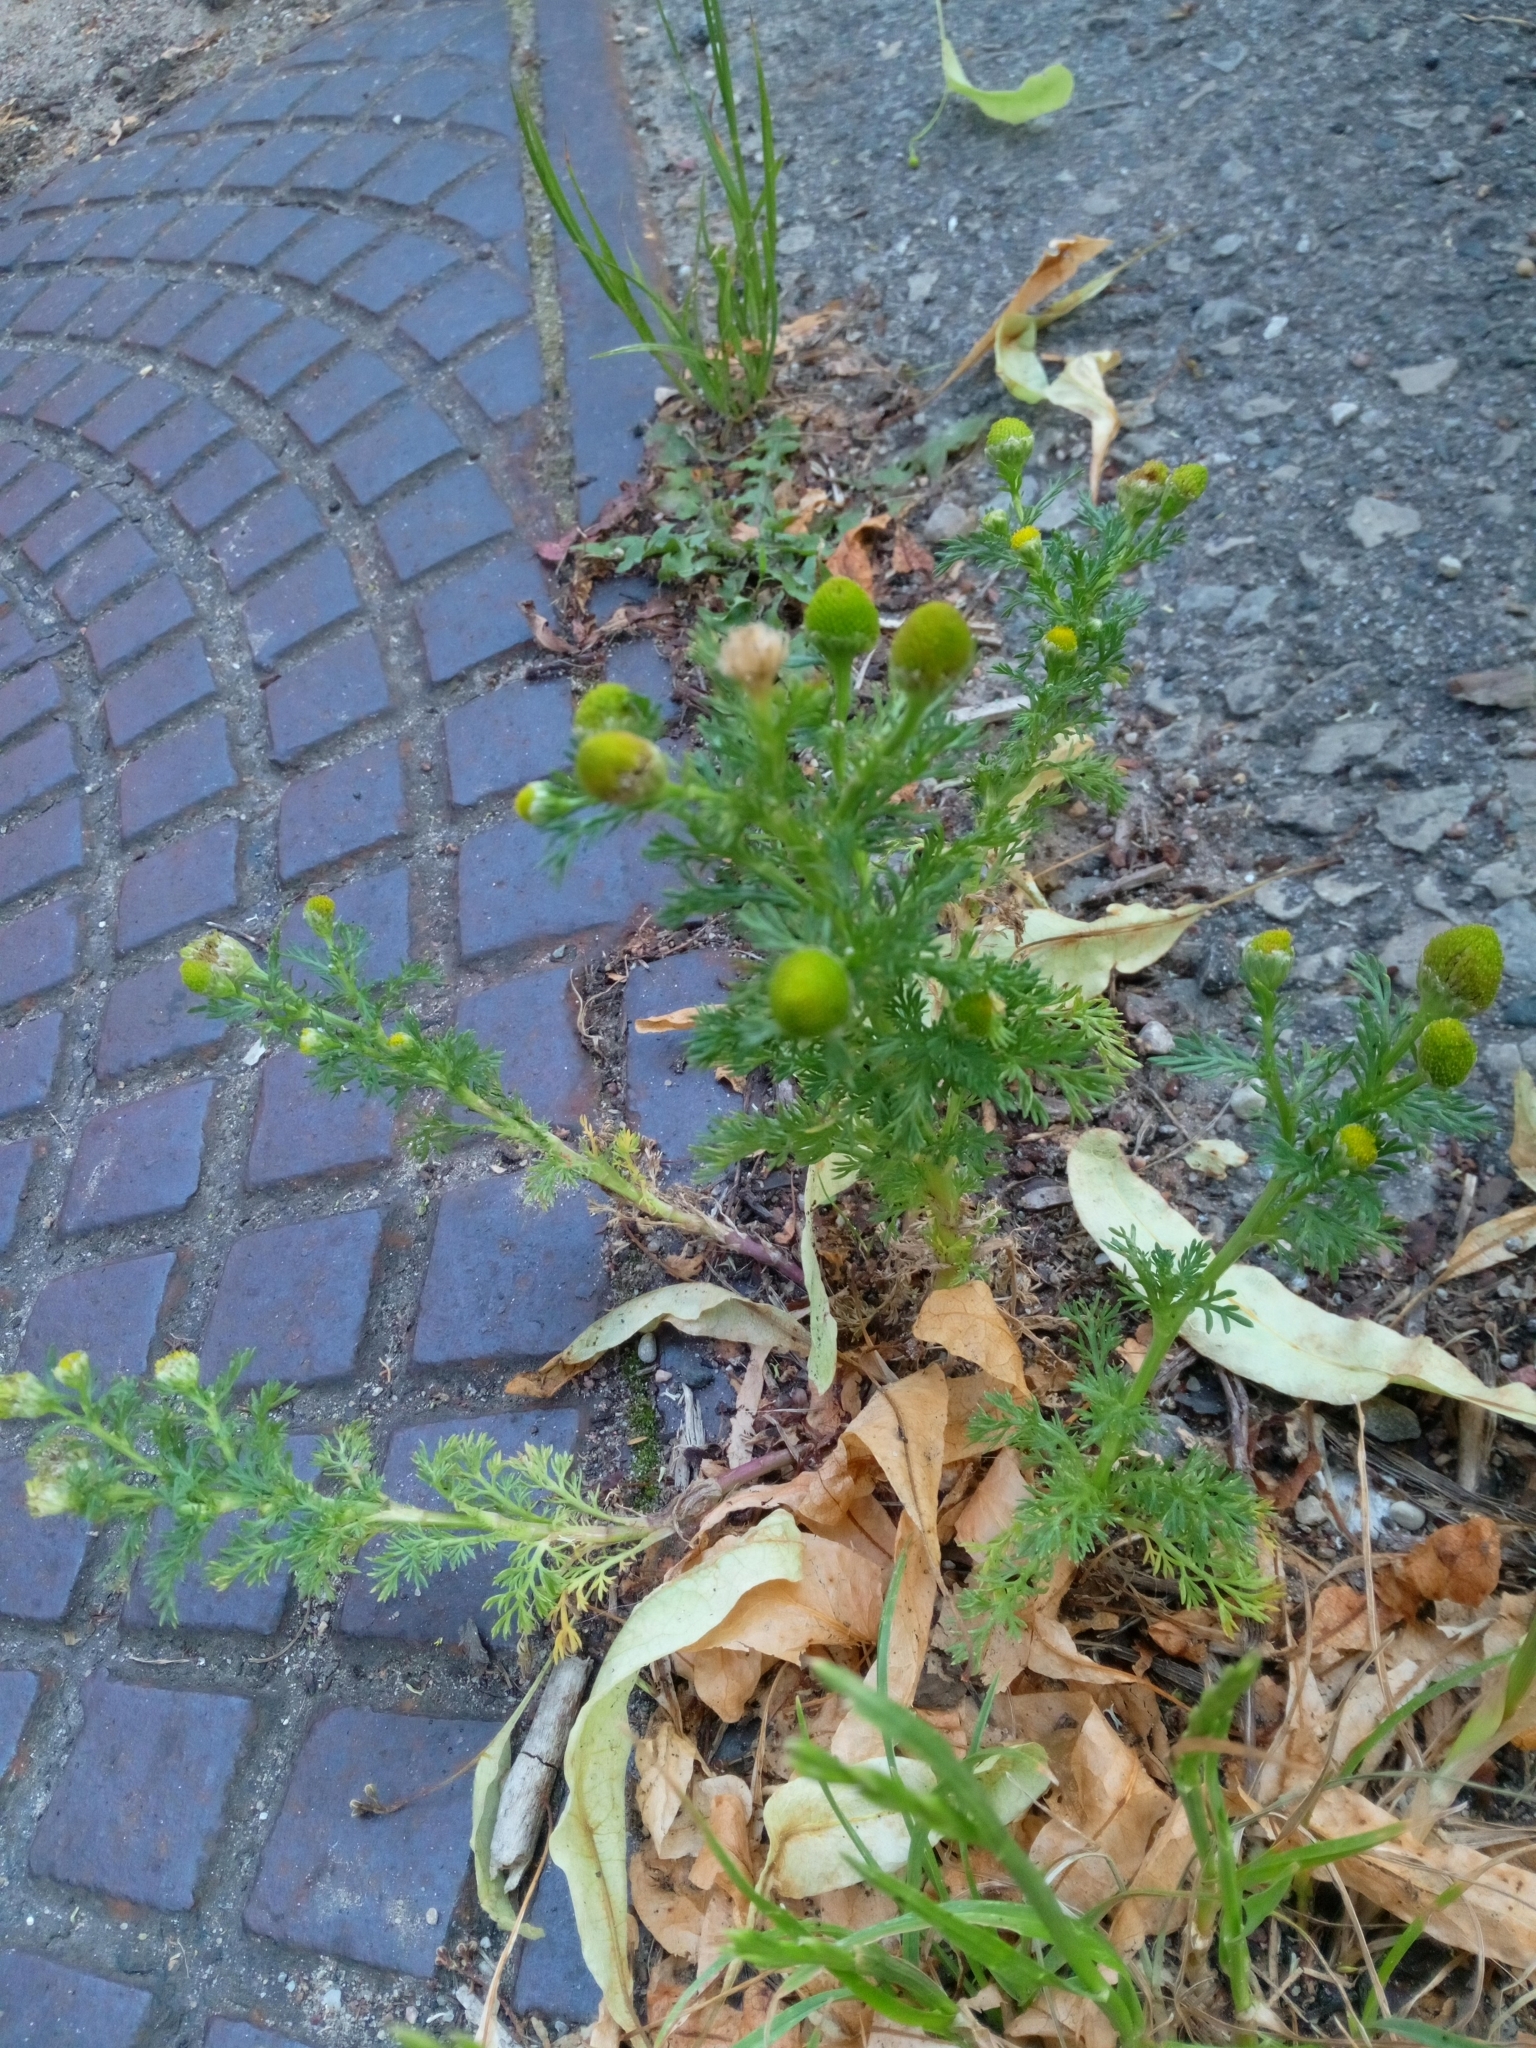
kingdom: Plantae
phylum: Tracheophyta
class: Magnoliopsida
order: Asterales
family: Asteraceae
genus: Matricaria
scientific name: Matricaria discoidea
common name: Disc mayweed
